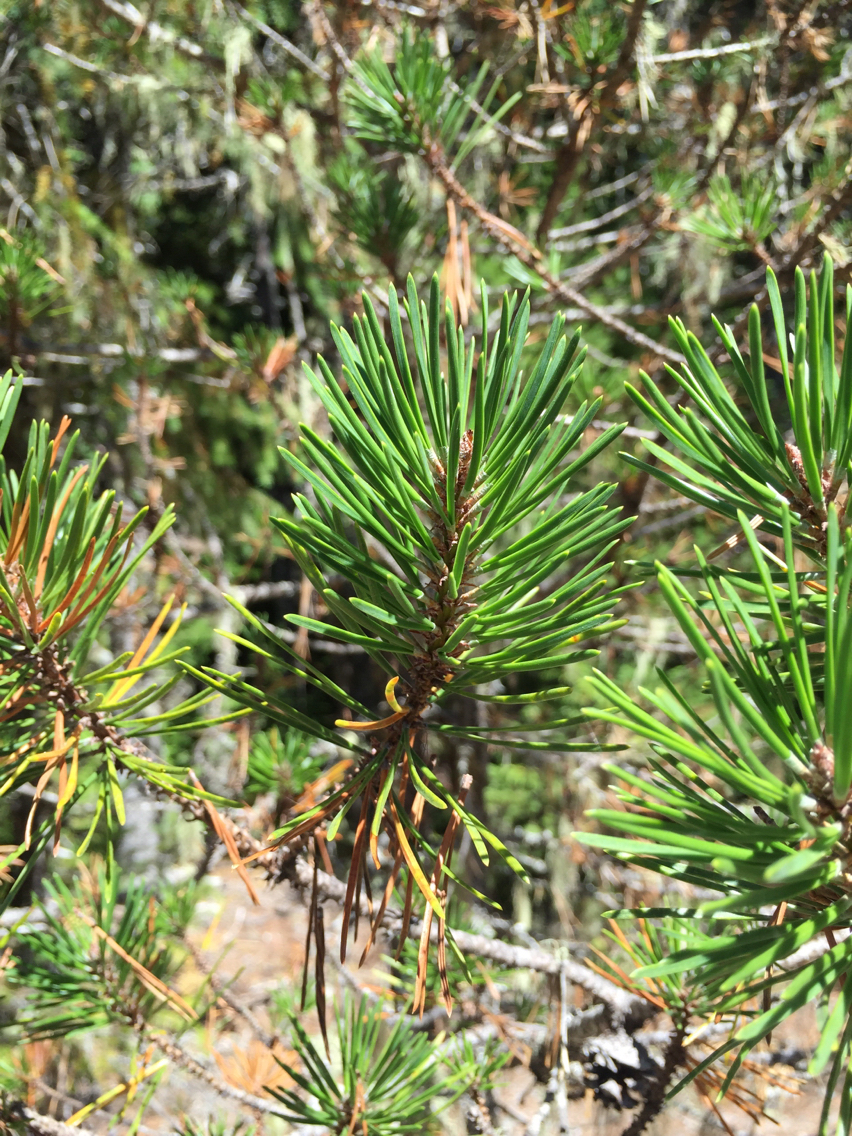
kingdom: Plantae
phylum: Tracheophyta
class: Pinopsida
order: Pinales
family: Pinaceae
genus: Pinus
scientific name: Pinus contorta
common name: Lodgepole pine
